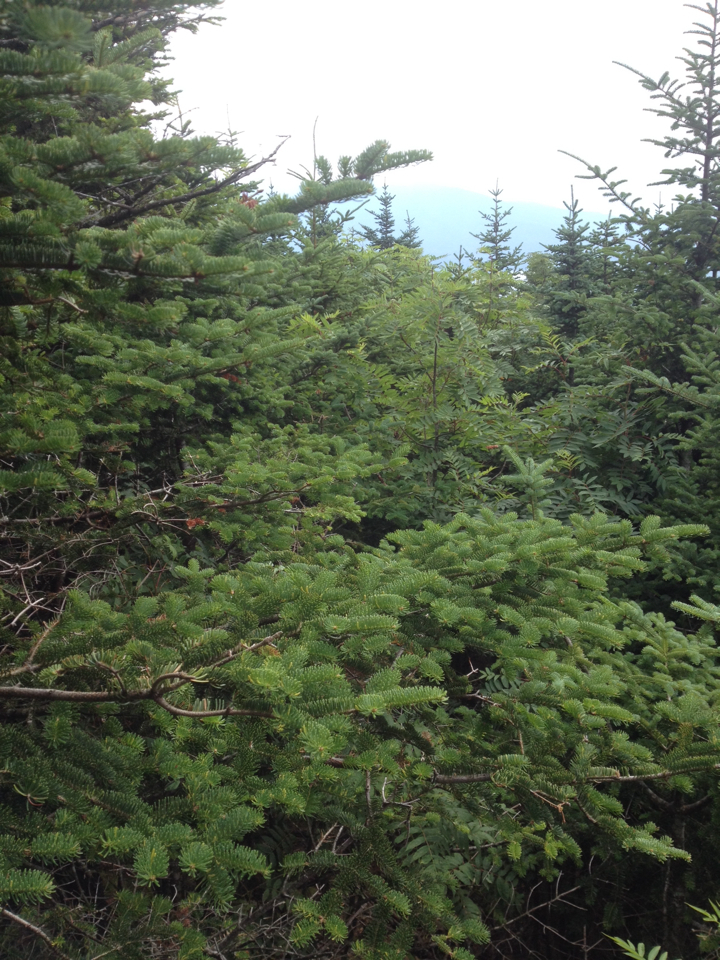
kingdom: Plantae
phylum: Tracheophyta
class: Magnoliopsida
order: Rosales
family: Rosaceae
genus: Sorbus
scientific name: Sorbus americana
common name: American mountain-ash
